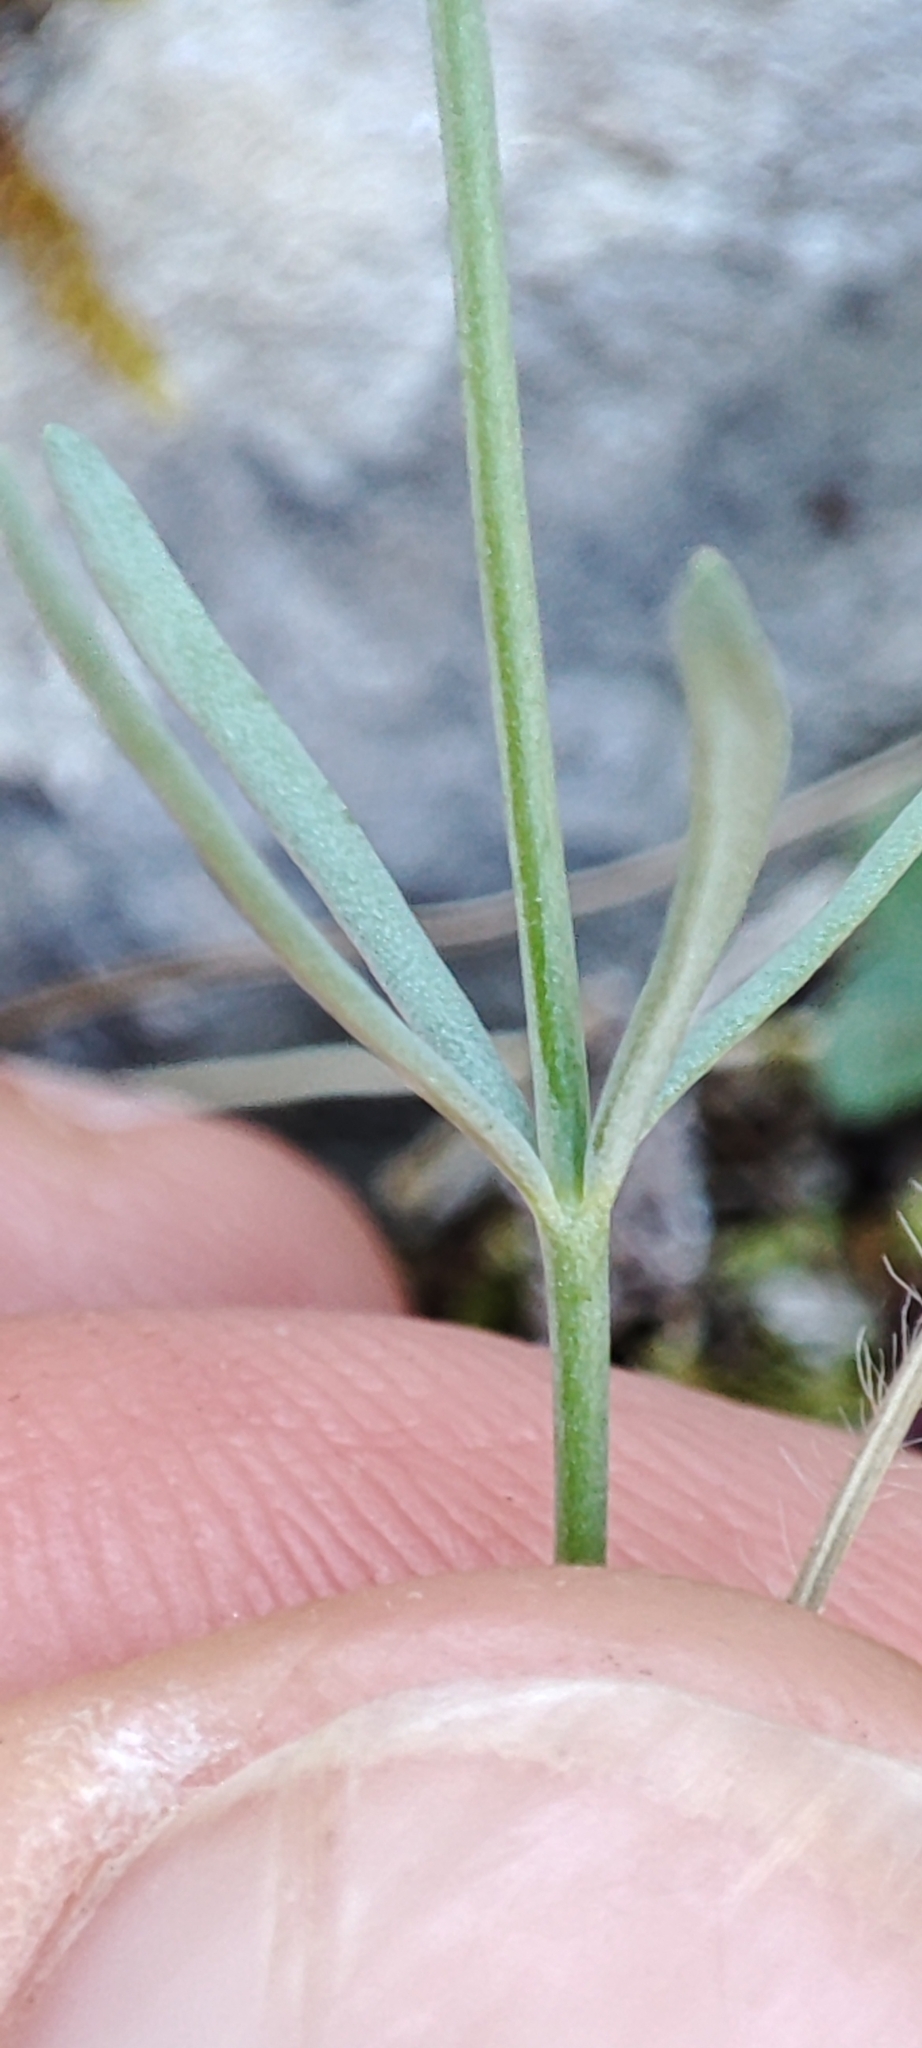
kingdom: Plantae
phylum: Tracheophyta
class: Magnoliopsida
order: Lamiales
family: Plantaginaceae
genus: Linaria
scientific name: Linaria supina
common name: Prostrate toadflax
